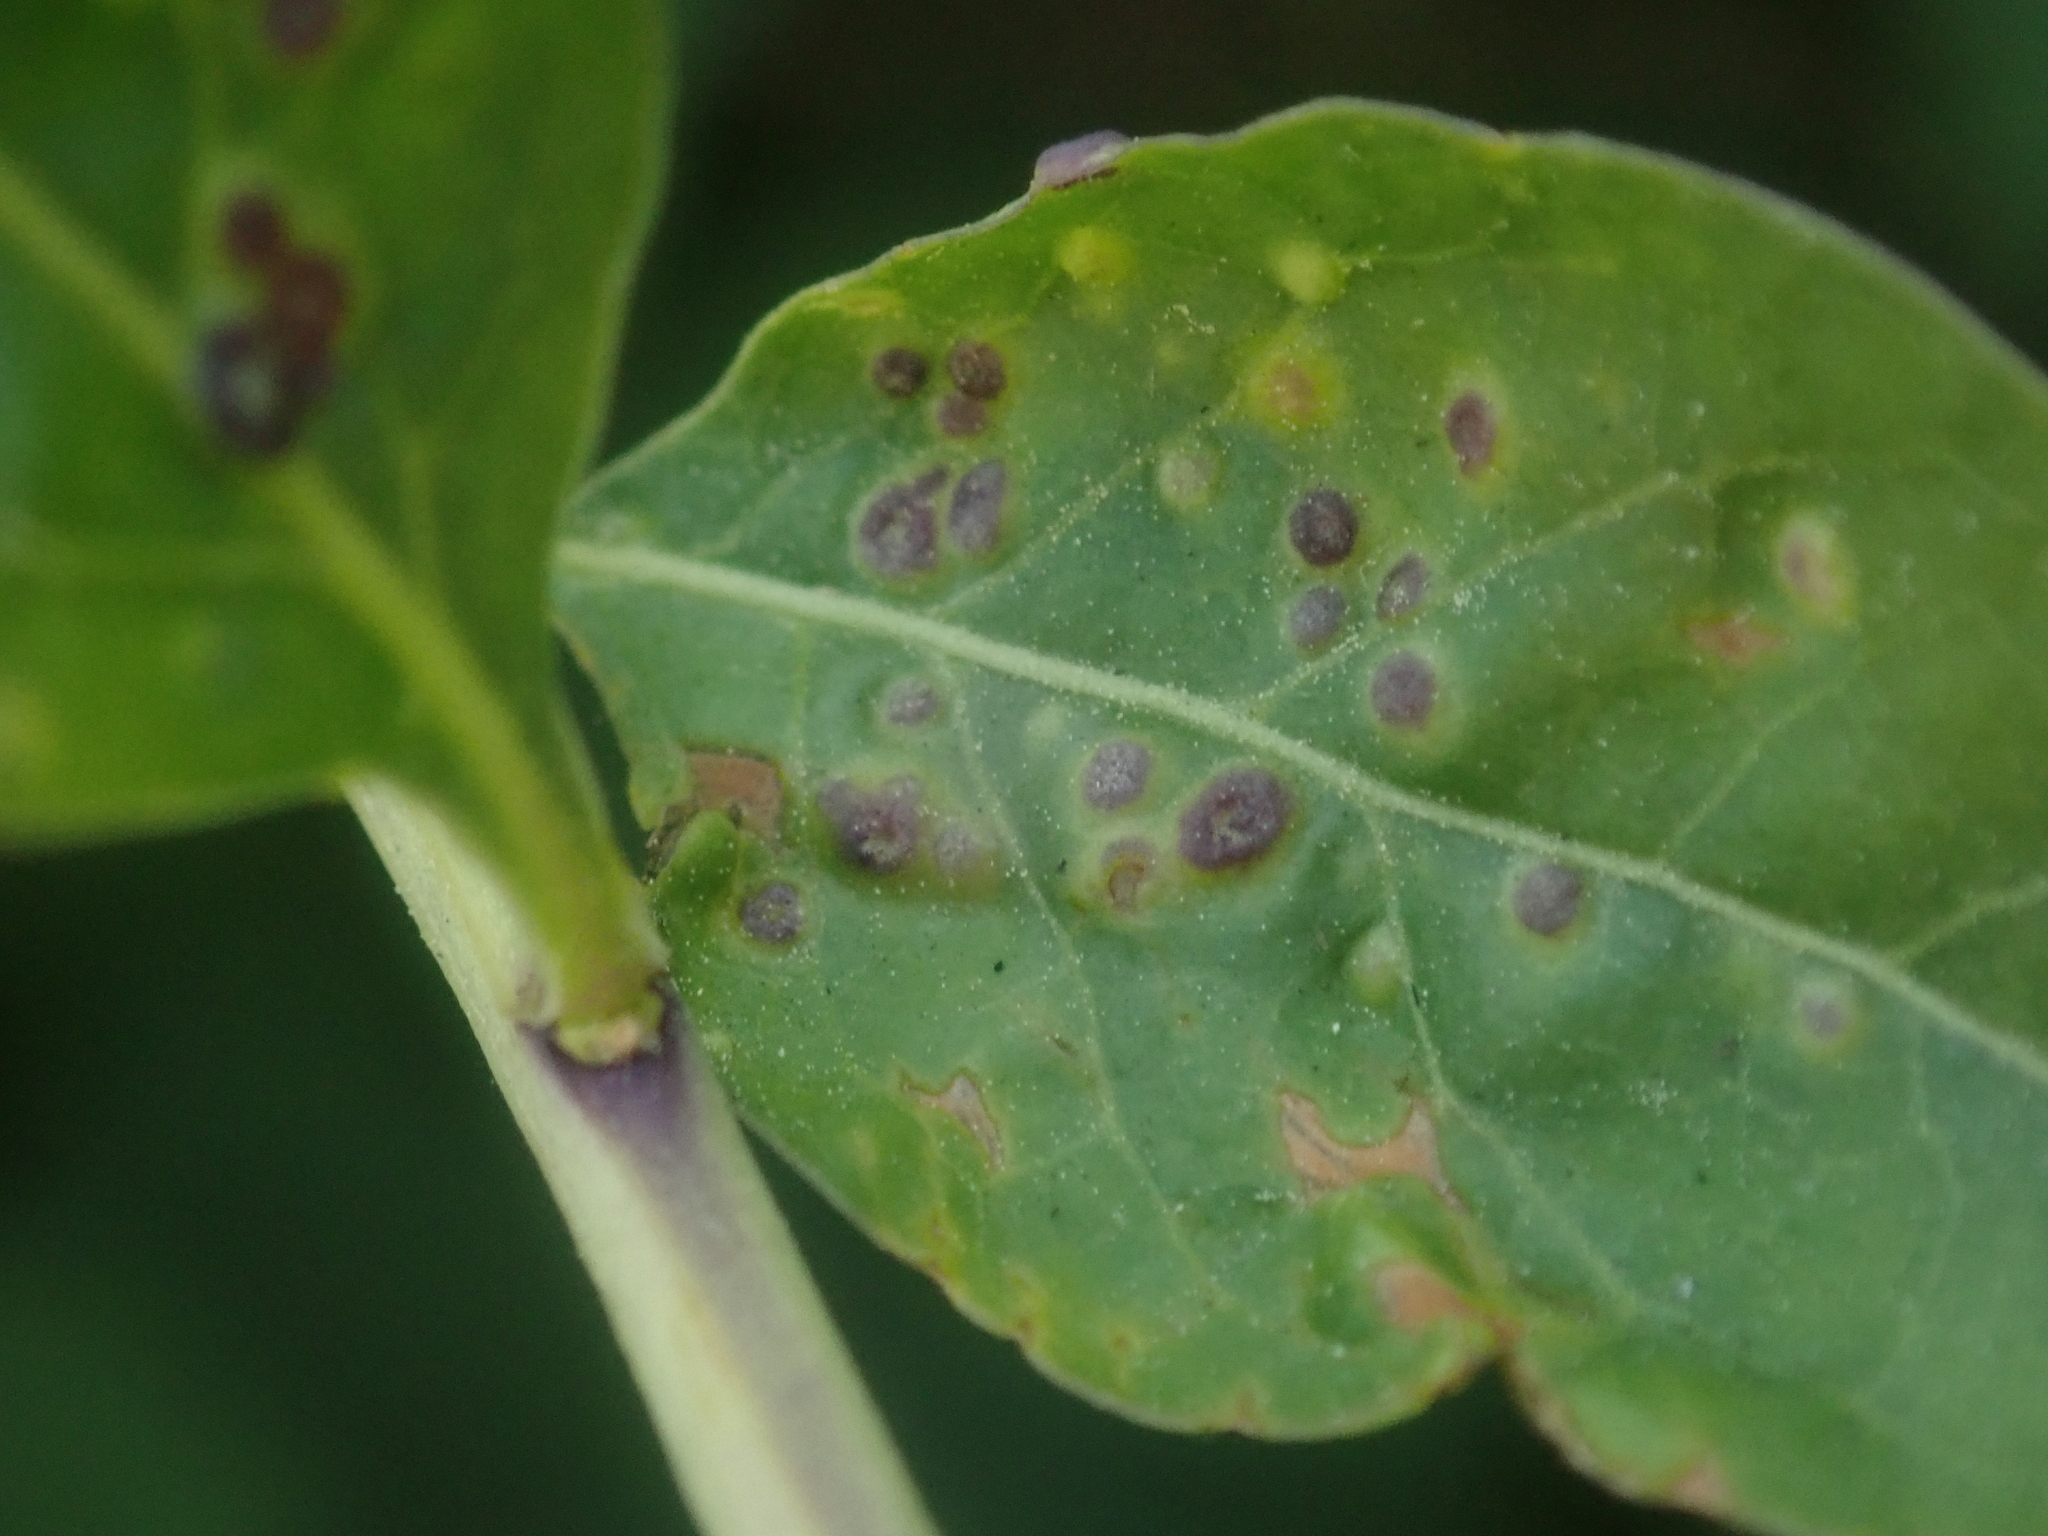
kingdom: Animalia
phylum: Arthropoda
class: Arachnida
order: Trombidiformes
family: Eriophyidae
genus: Aceria
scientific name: Aceria kuko
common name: Goji gall mite
